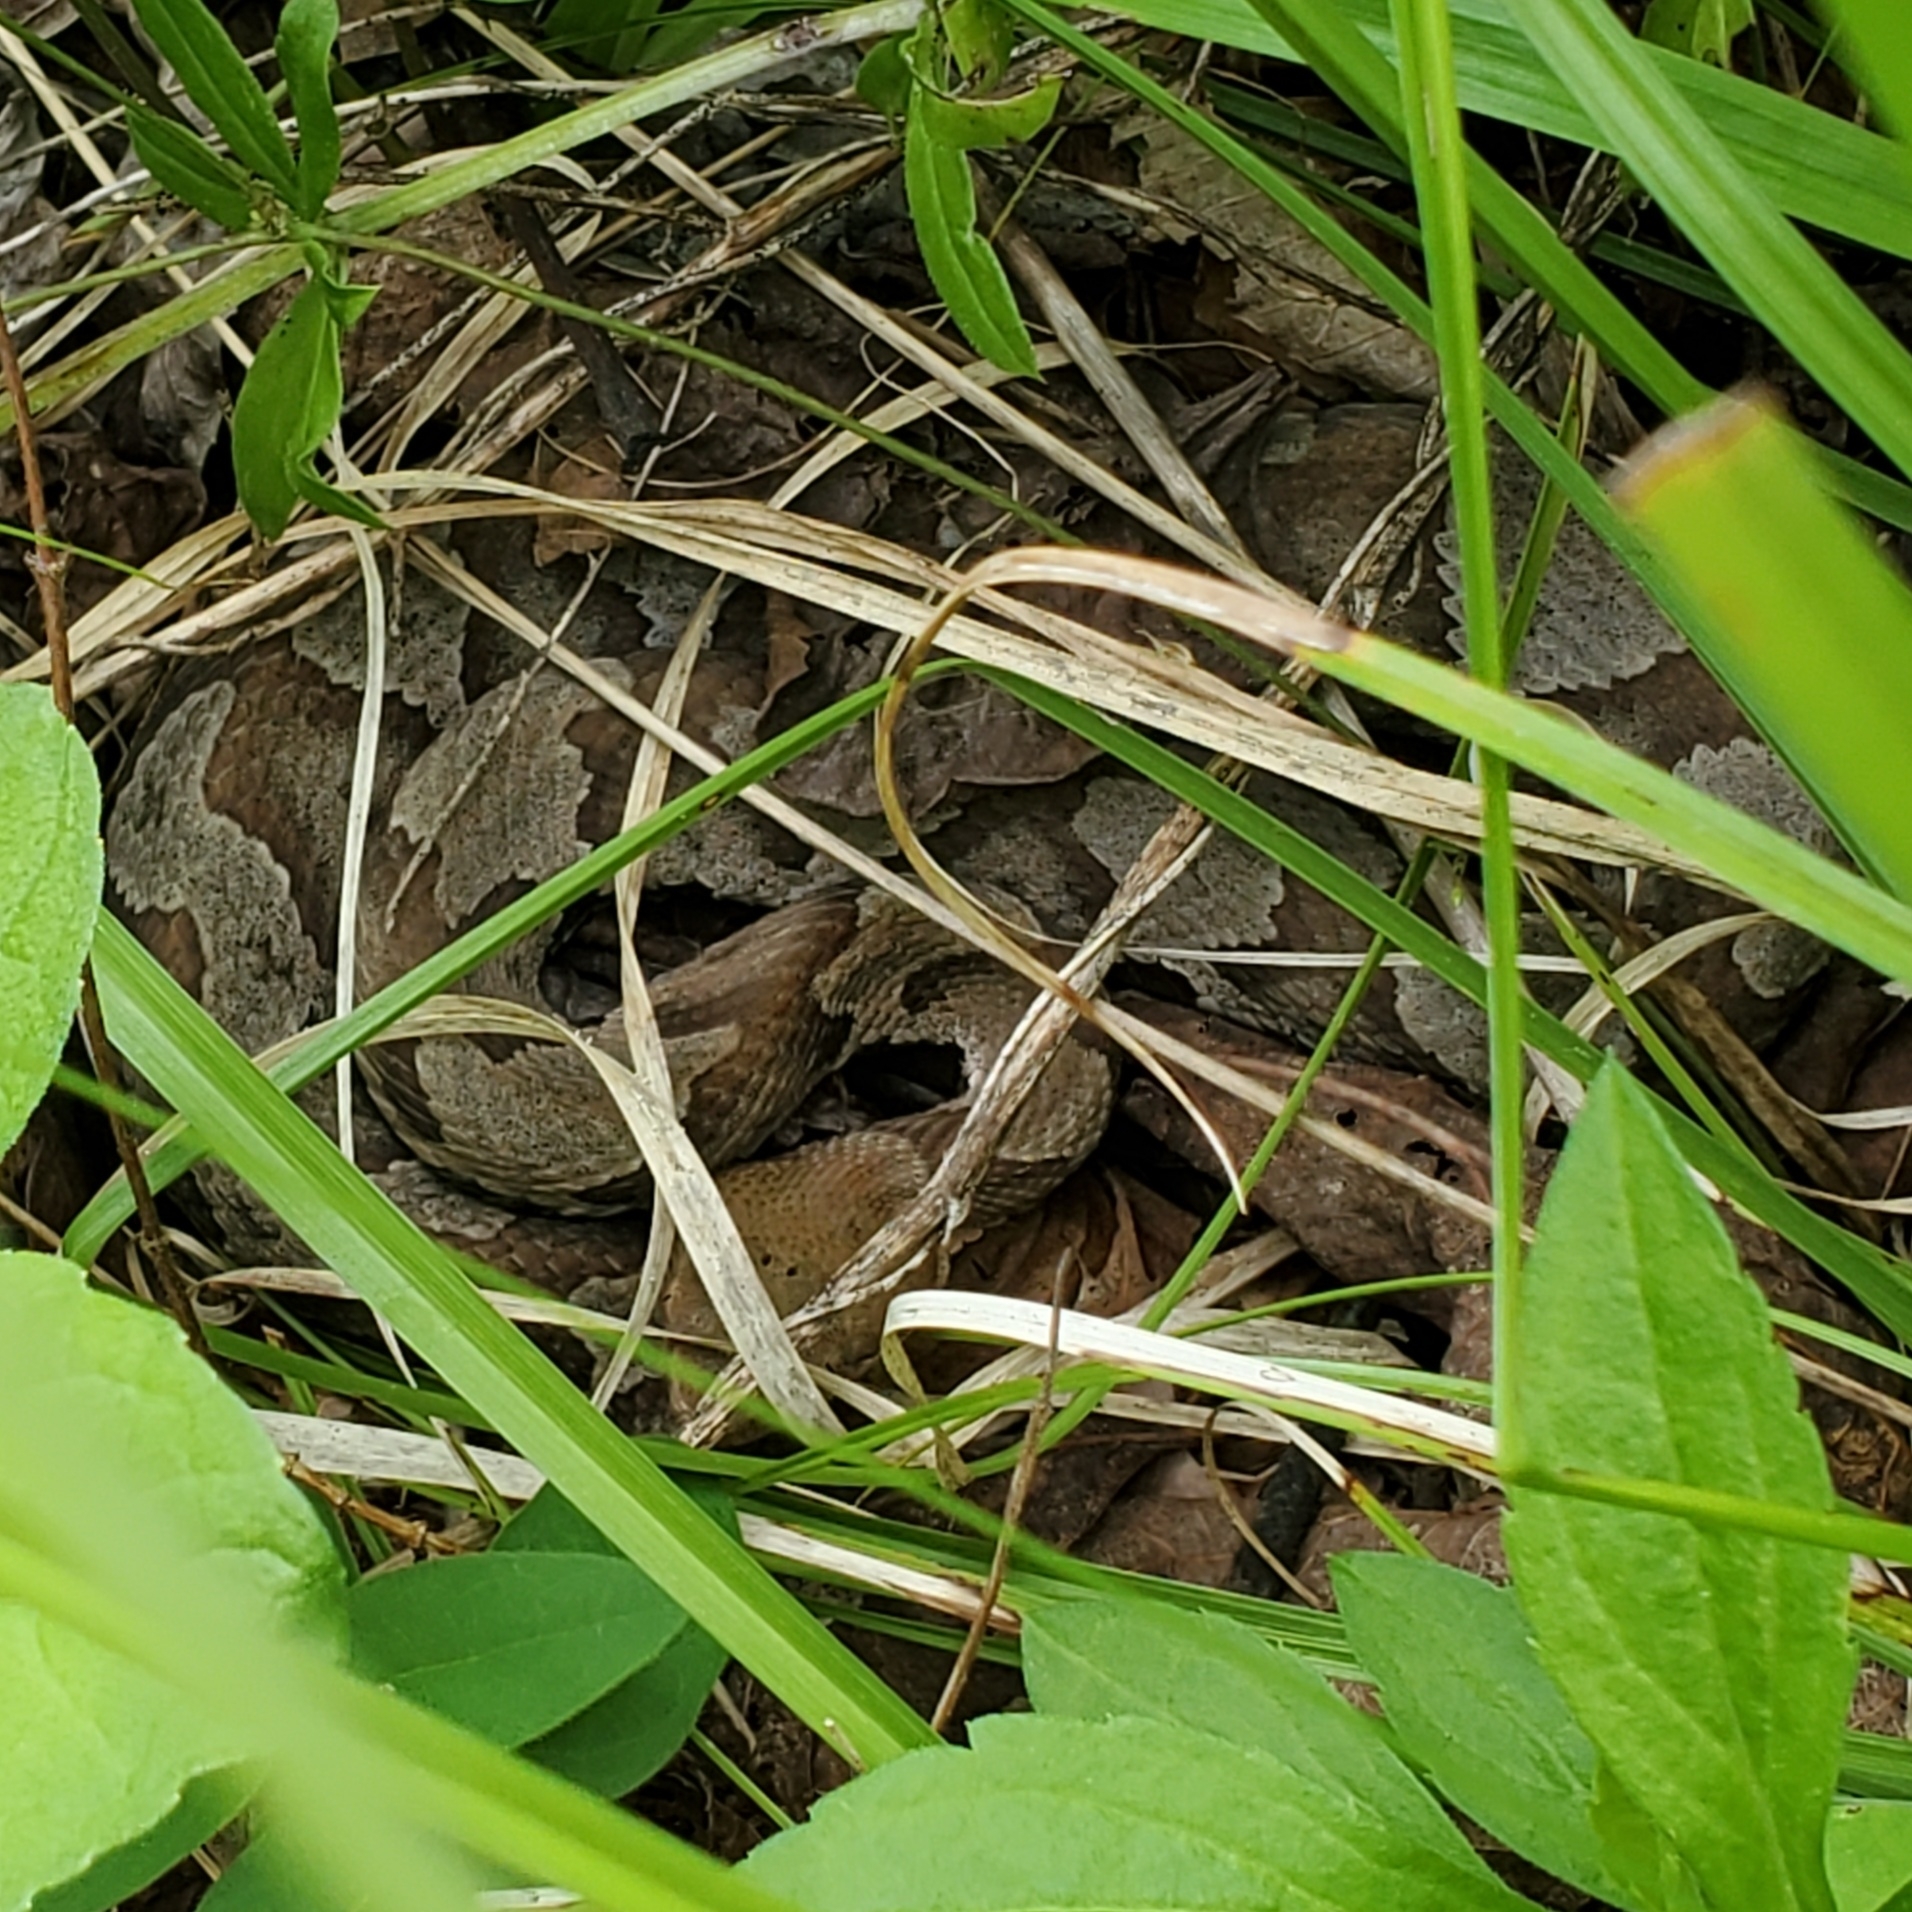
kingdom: Animalia
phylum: Chordata
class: Squamata
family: Viperidae
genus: Agkistrodon
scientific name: Agkistrodon contortrix
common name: Northern copperhead
